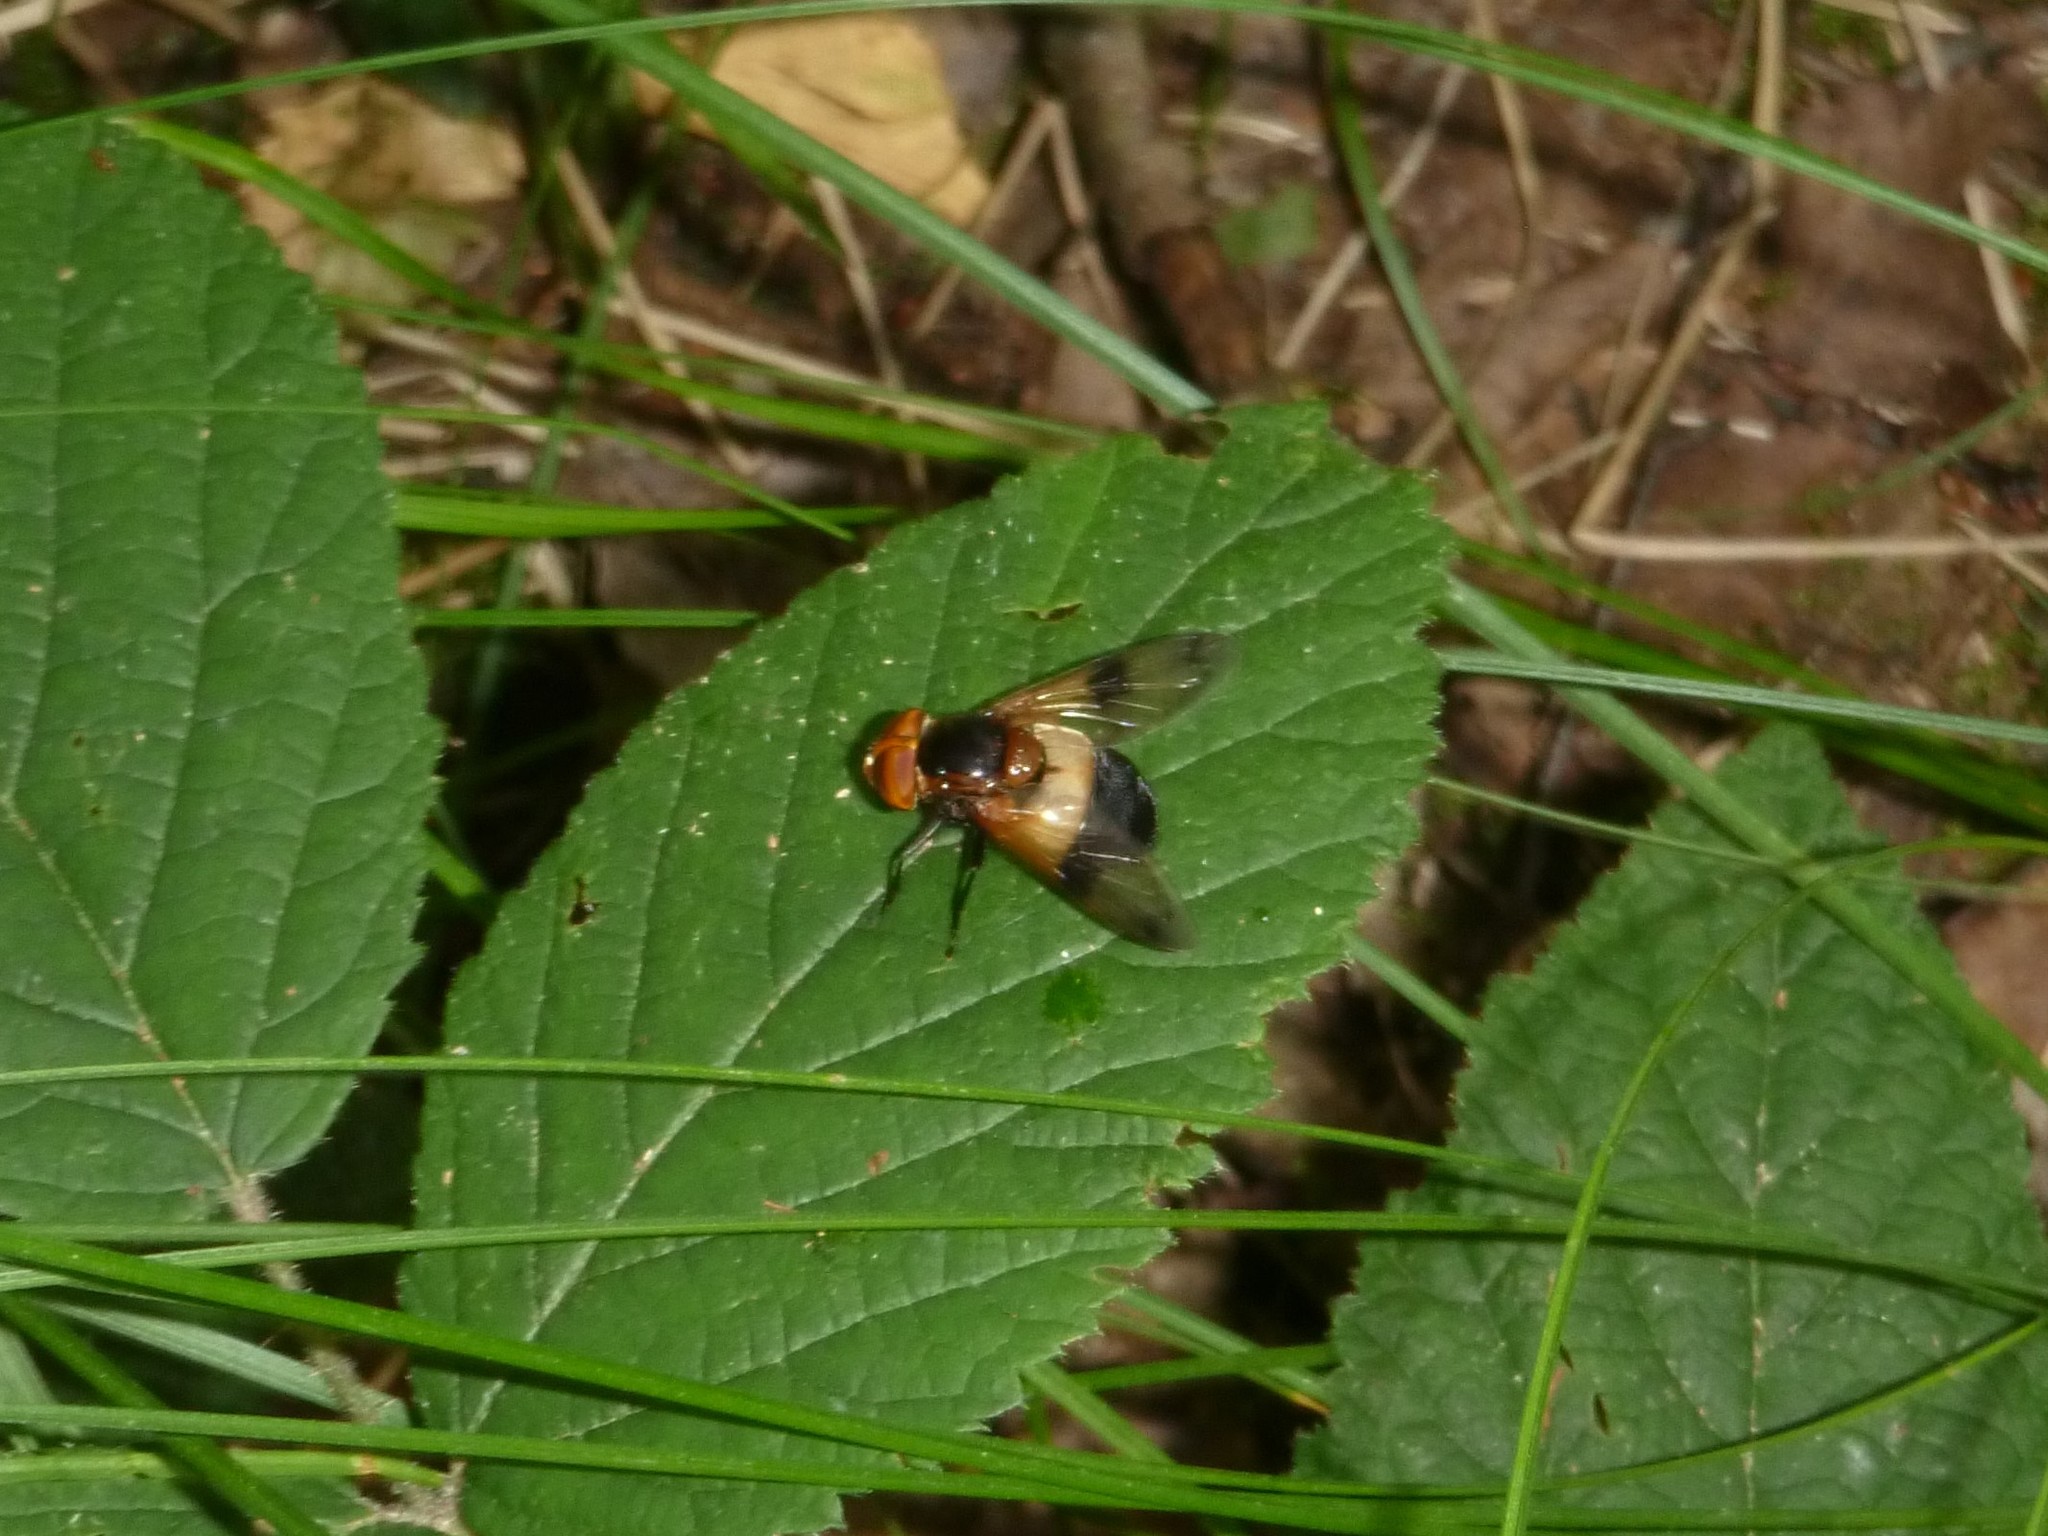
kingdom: Animalia
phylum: Arthropoda
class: Insecta
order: Diptera
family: Syrphidae
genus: Volucella
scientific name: Volucella pellucens
